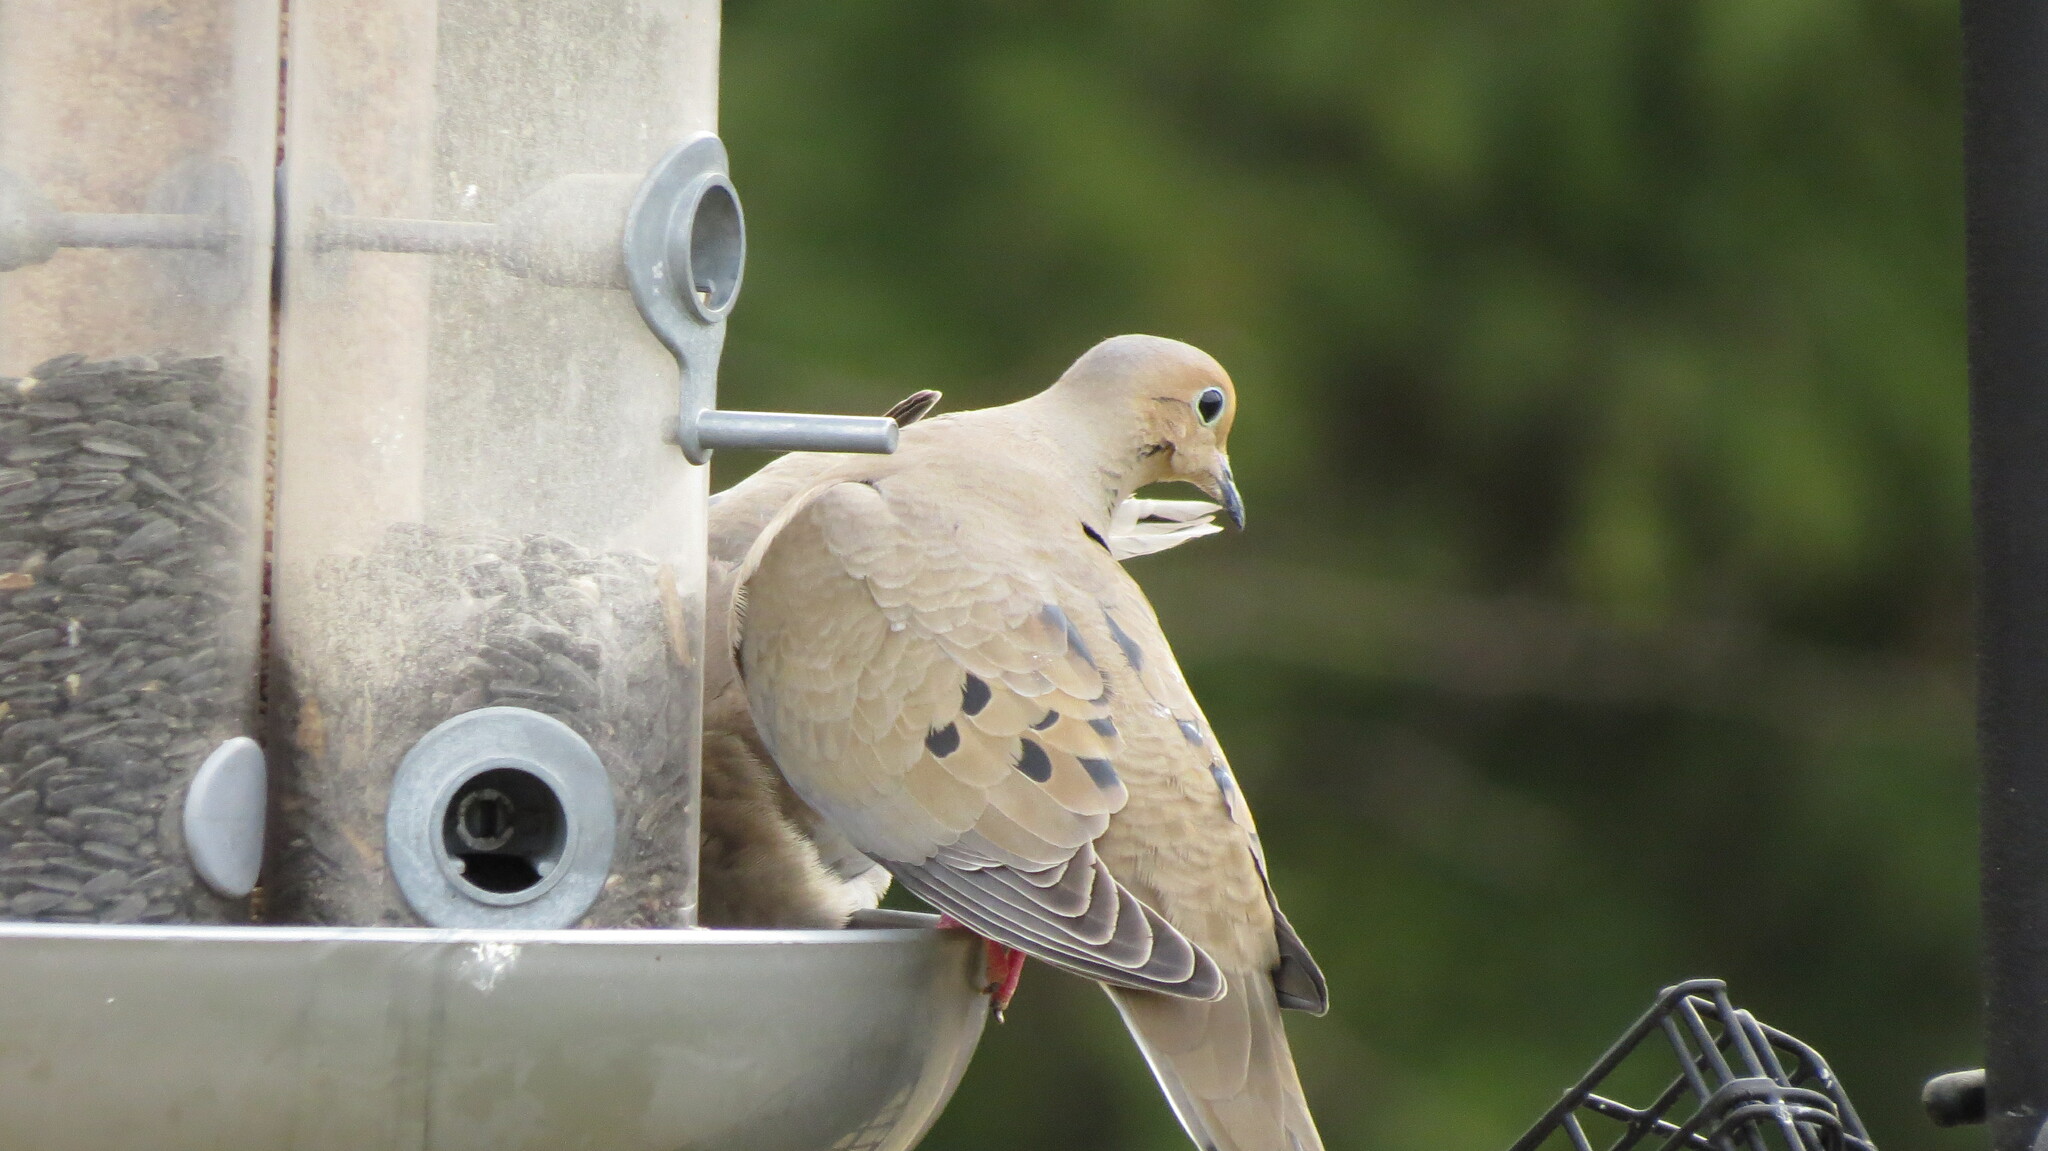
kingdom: Animalia
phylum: Chordata
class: Aves
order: Columbiformes
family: Columbidae
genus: Zenaida
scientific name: Zenaida macroura
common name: Mourning dove
